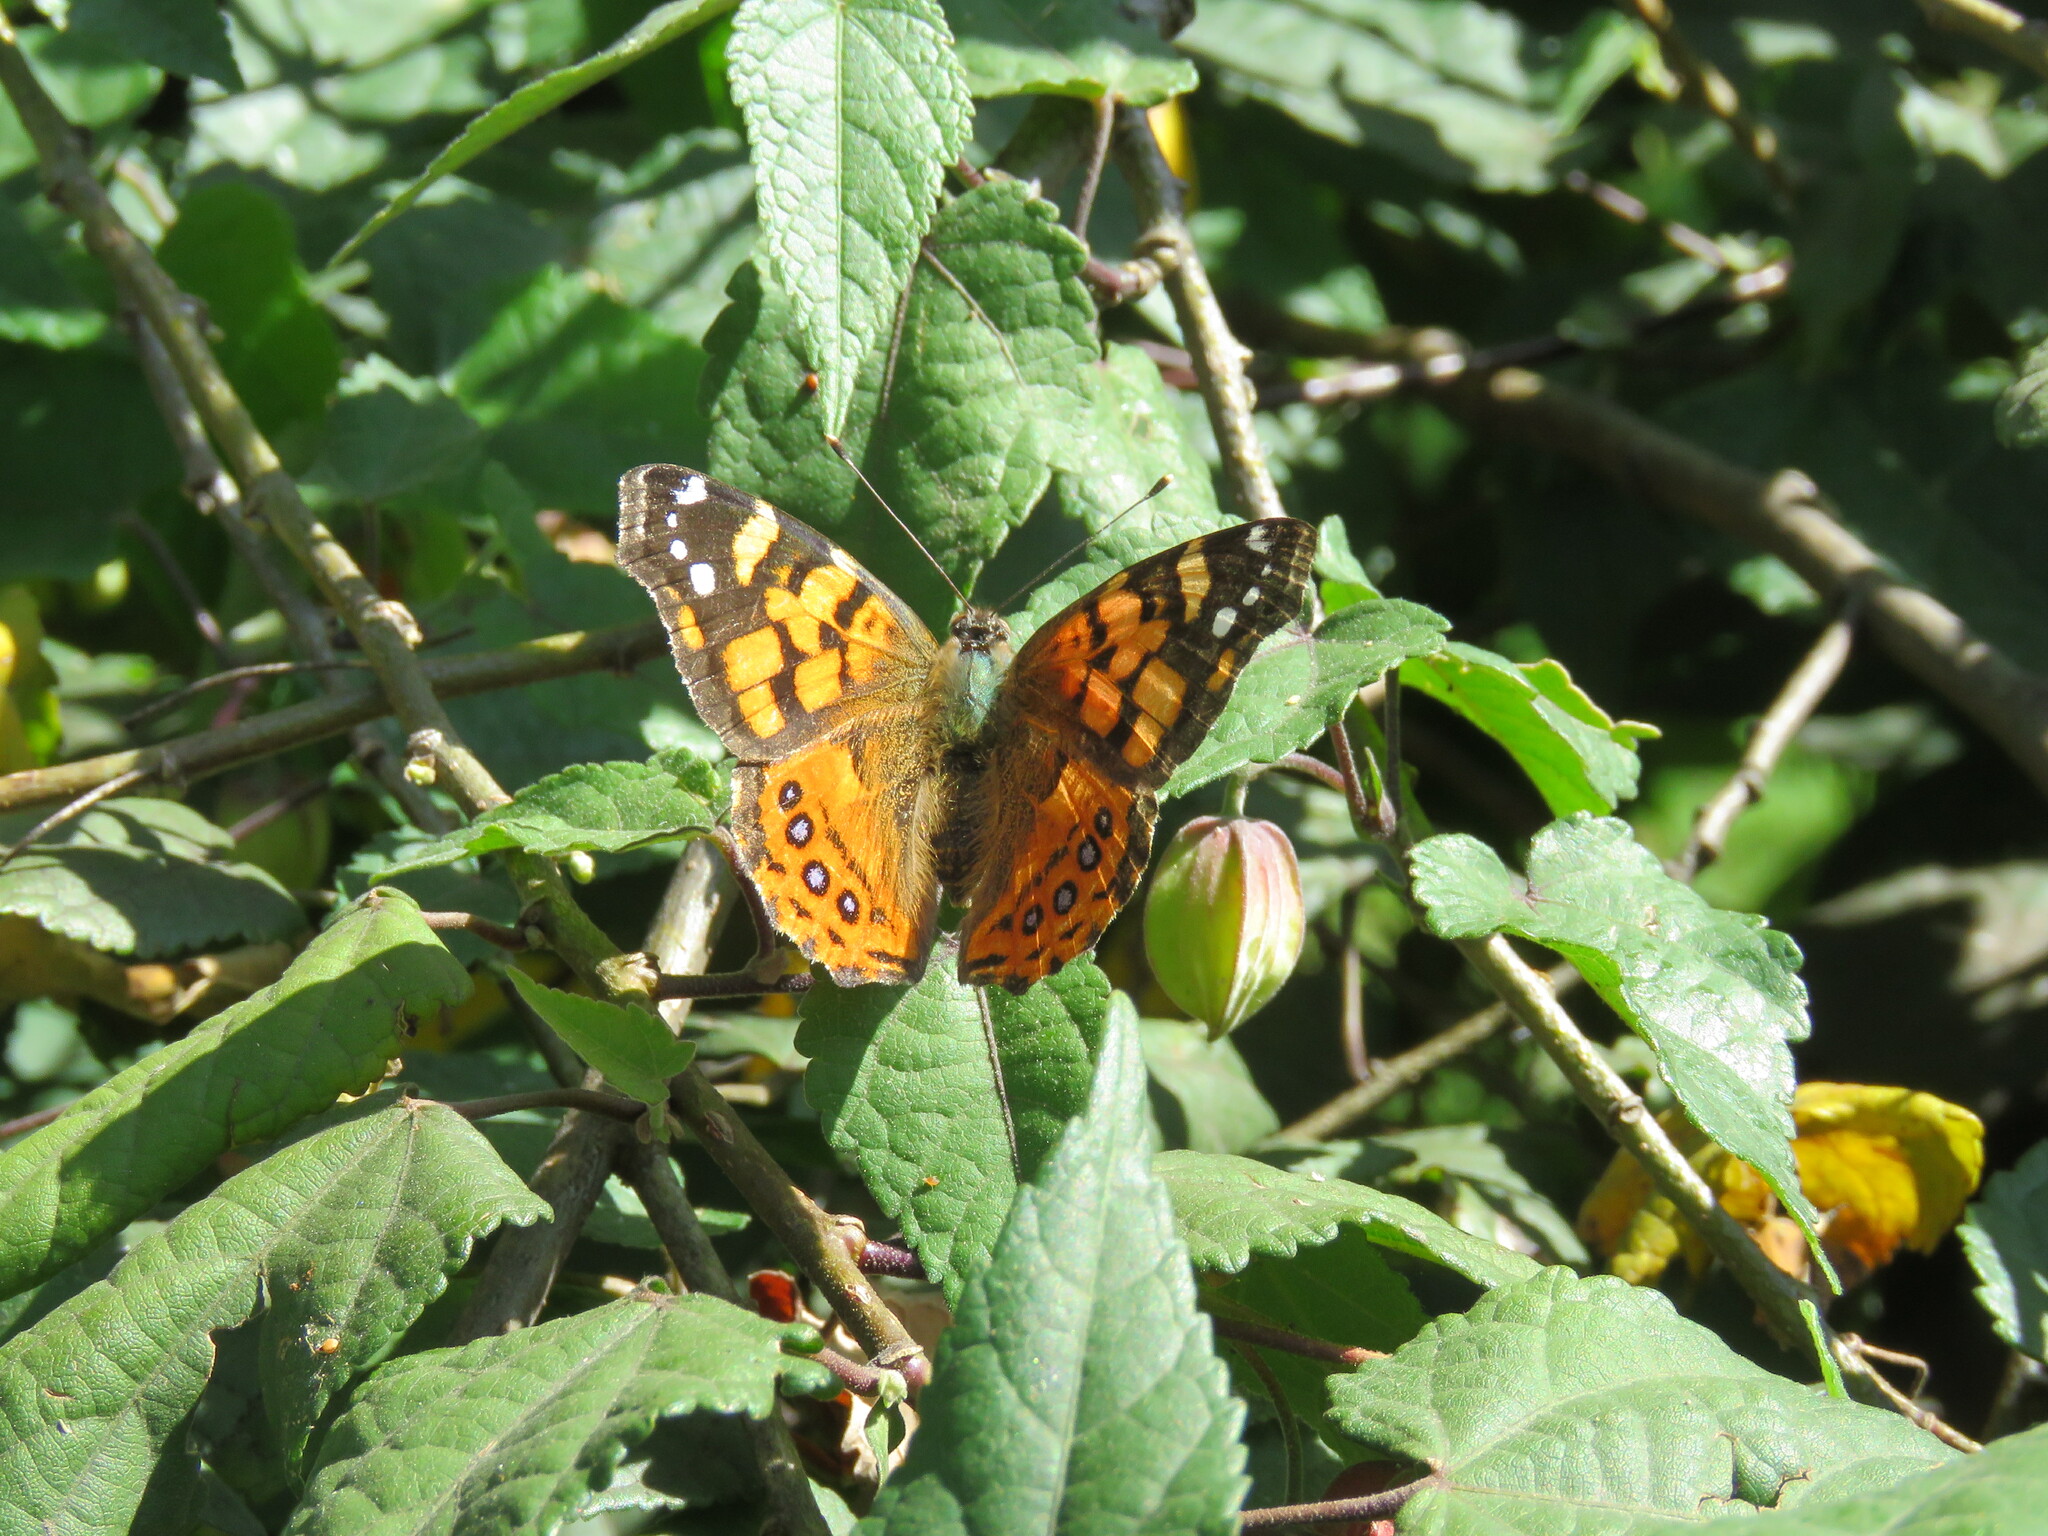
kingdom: Animalia
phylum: Arthropoda
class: Insecta
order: Lepidoptera
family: Nymphalidae
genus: Vanessa
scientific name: Vanessa carye
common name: Subtropical lady
